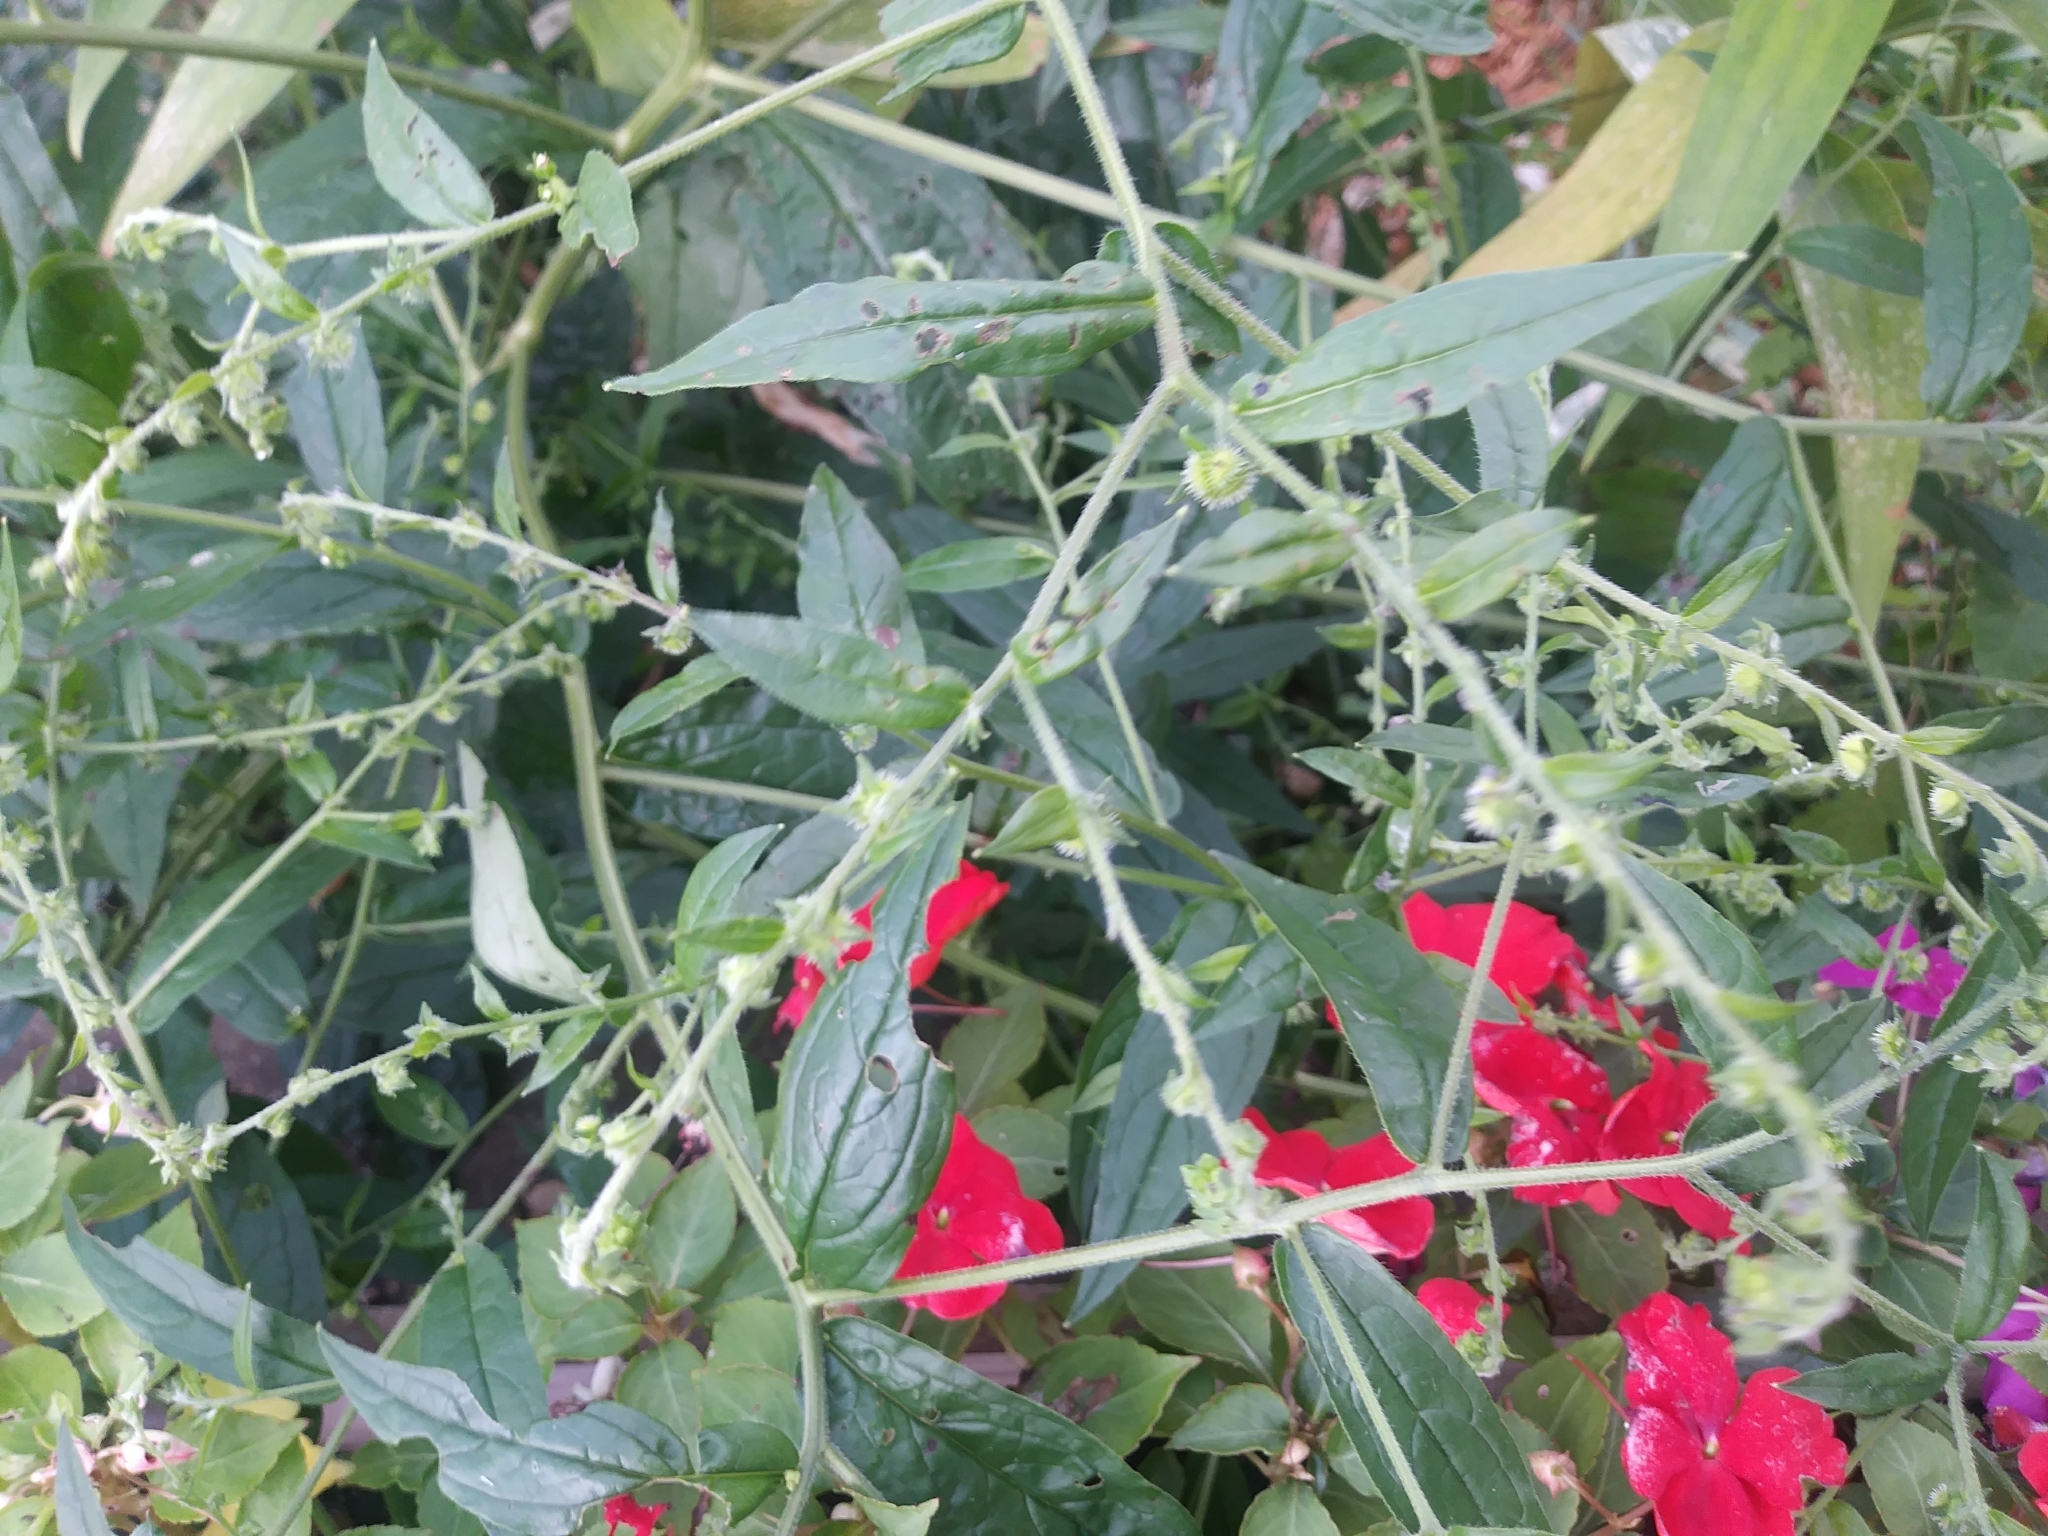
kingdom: Plantae
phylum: Tracheophyta
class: Magnoliopsida
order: Boraginales
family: Boraginaceae
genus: Hackelia
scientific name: Hackelia virginiana
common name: Beggar's-lice
